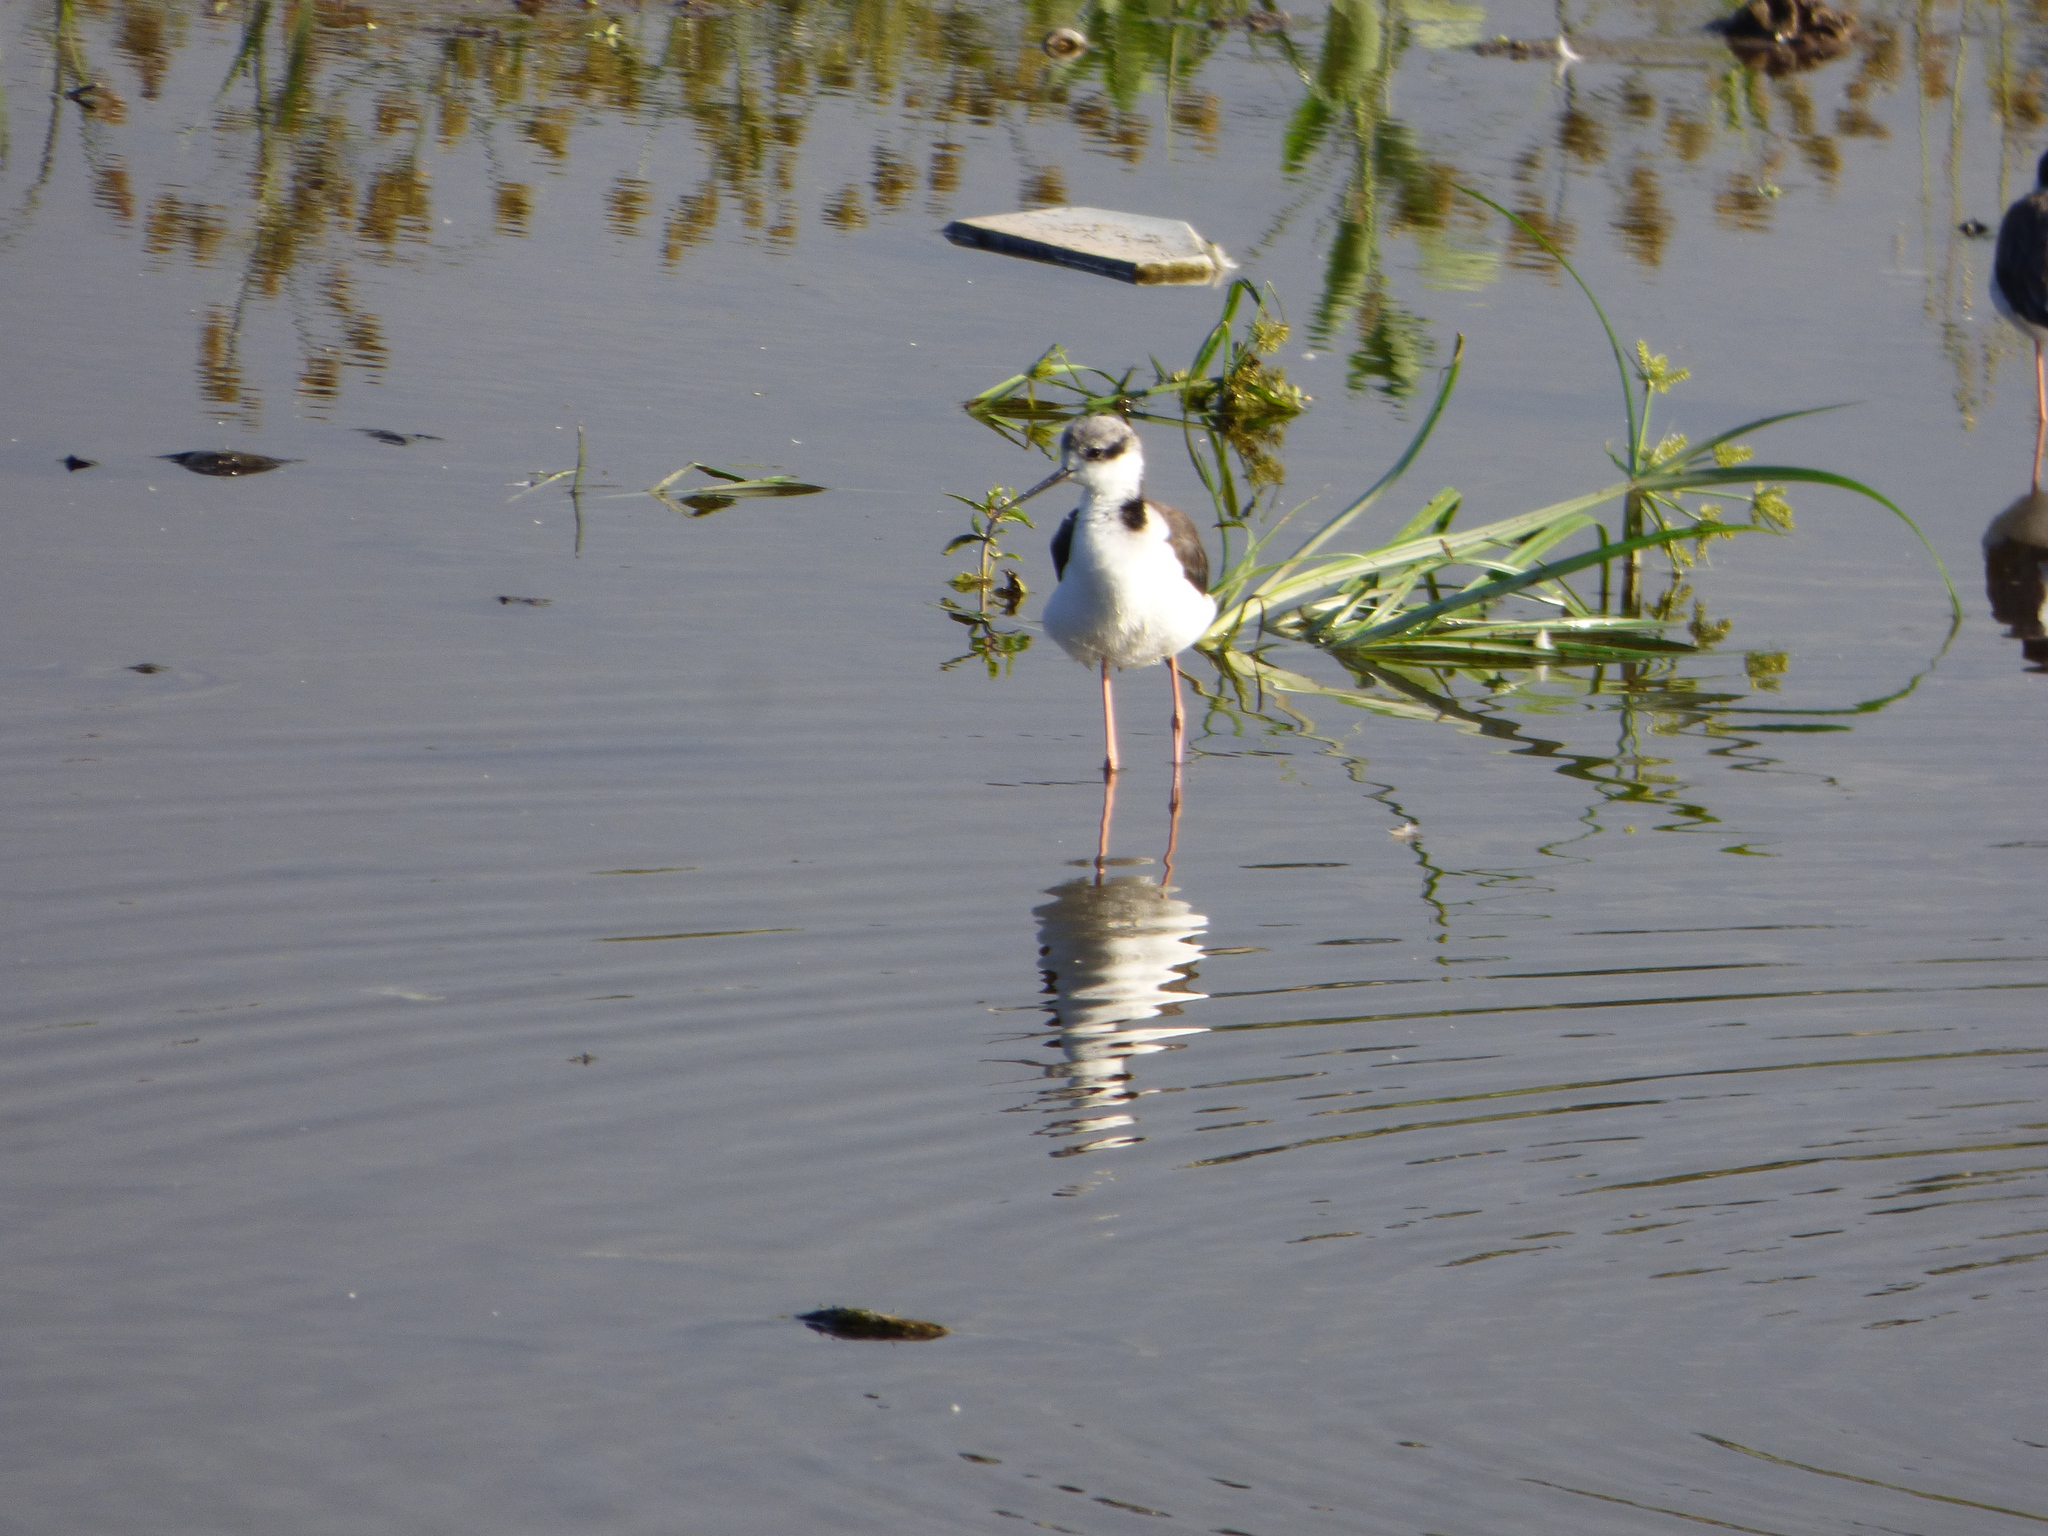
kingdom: Animalia
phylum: Chordata
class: Aves
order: Charadriiformes
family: Recurvirostridae
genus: Himantopus
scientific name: Himantopus mexicanus
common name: Black-necked stilt
